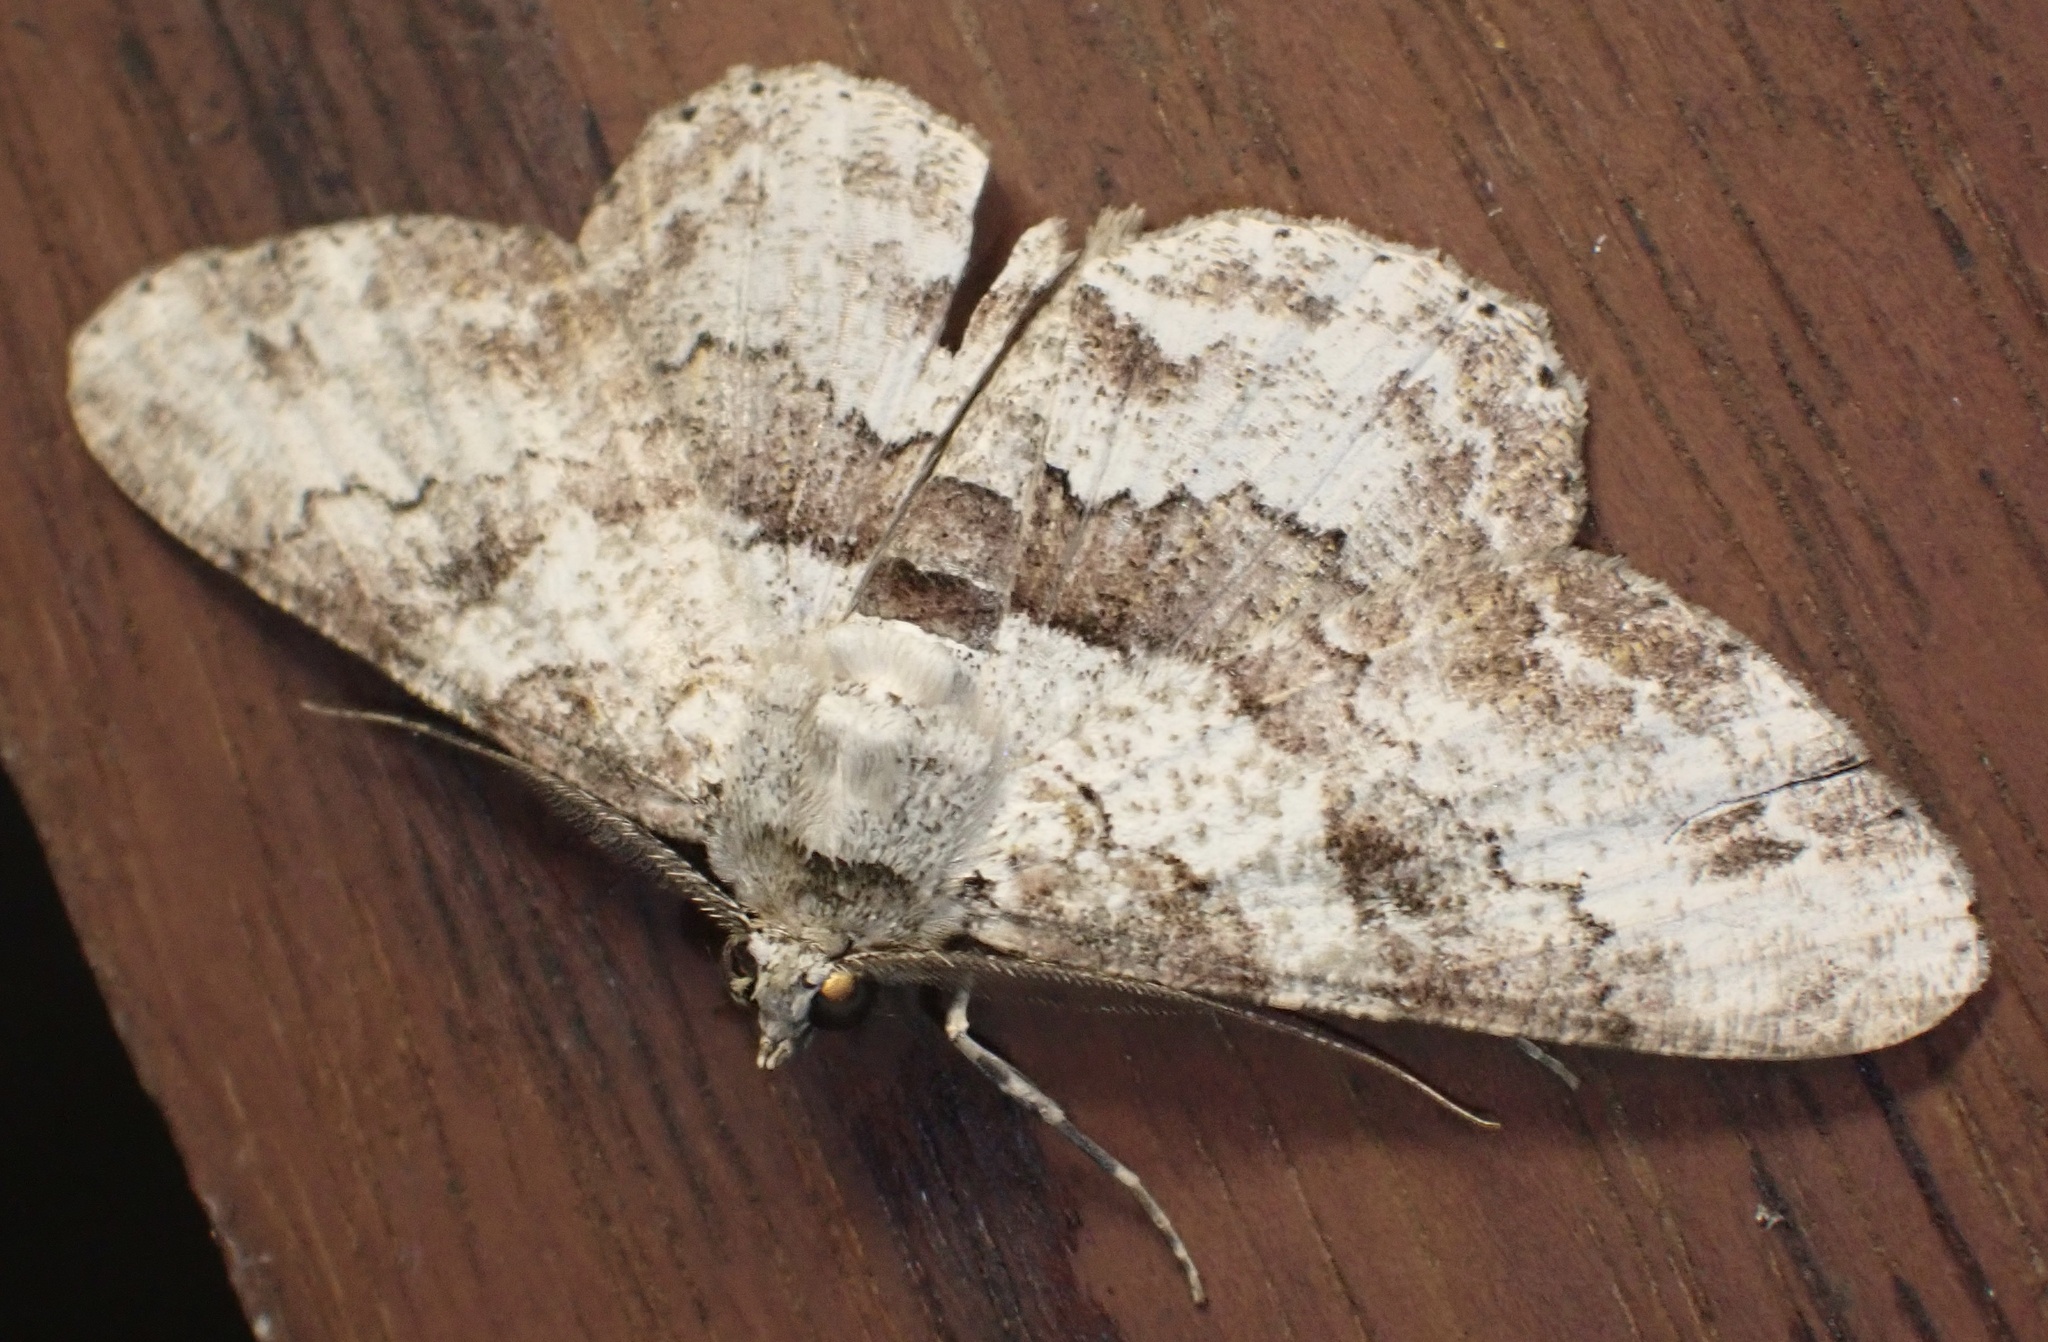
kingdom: Animalia
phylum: Arthropoda
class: Insecta
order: Lepidoptera
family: Geometridae
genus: Cleora
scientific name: Cleora repetita
